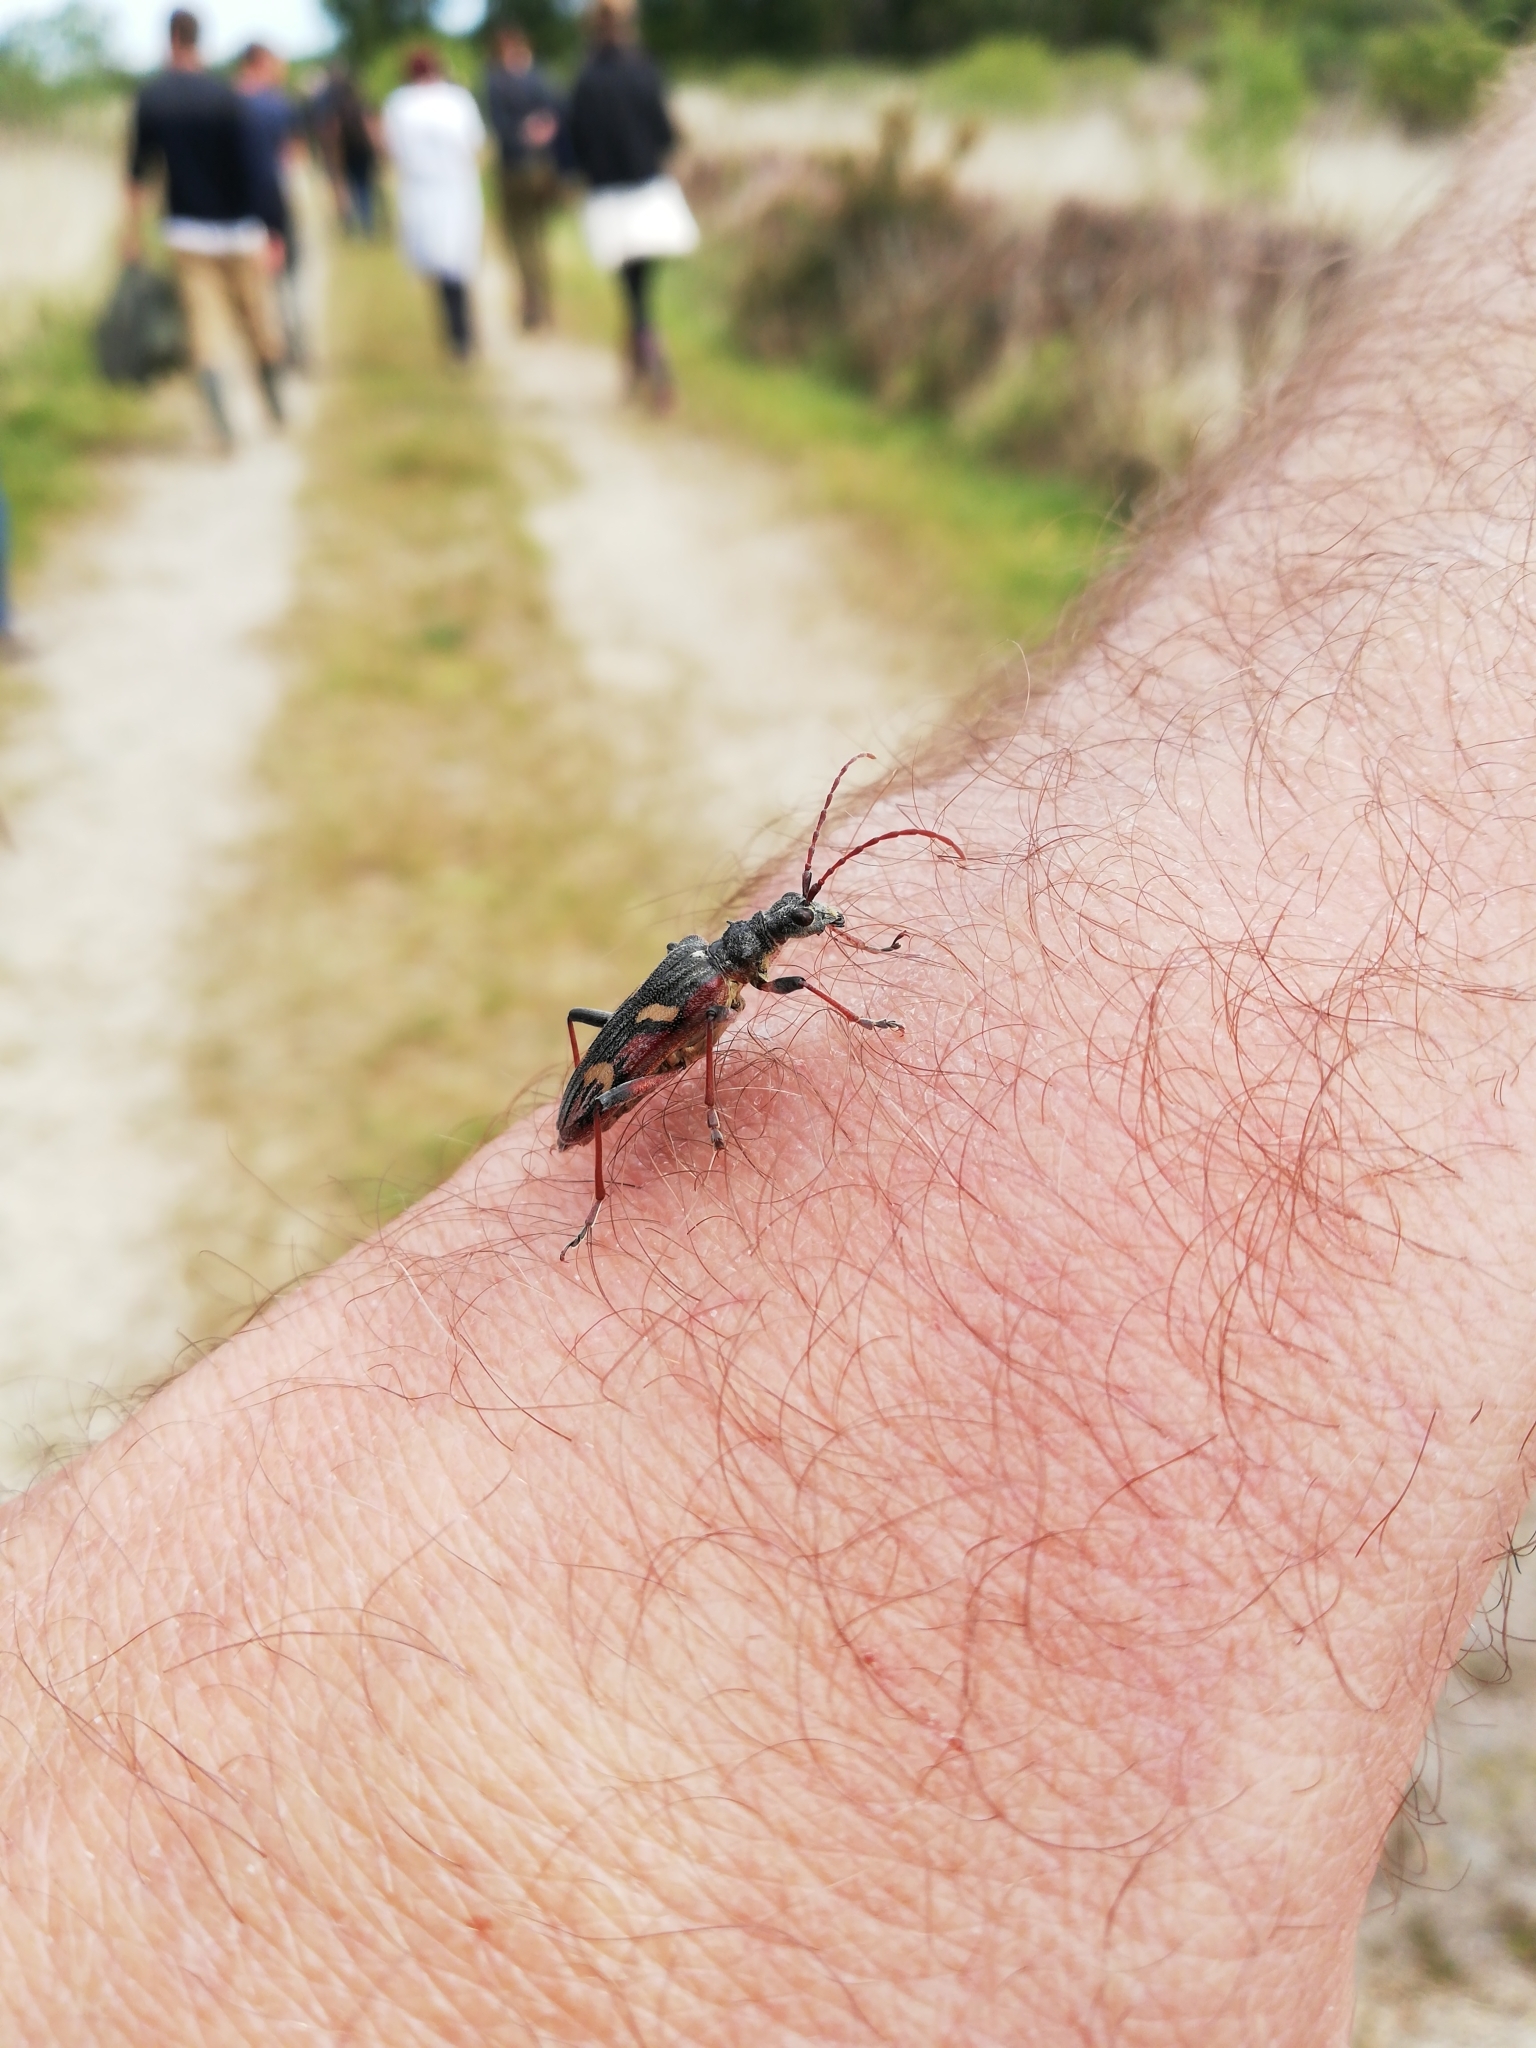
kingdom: Animalia
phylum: Arthropoda
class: Insecta
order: Coleoptera
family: Cerambycidae
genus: Rhagium
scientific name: Rhagium bifasciatum
